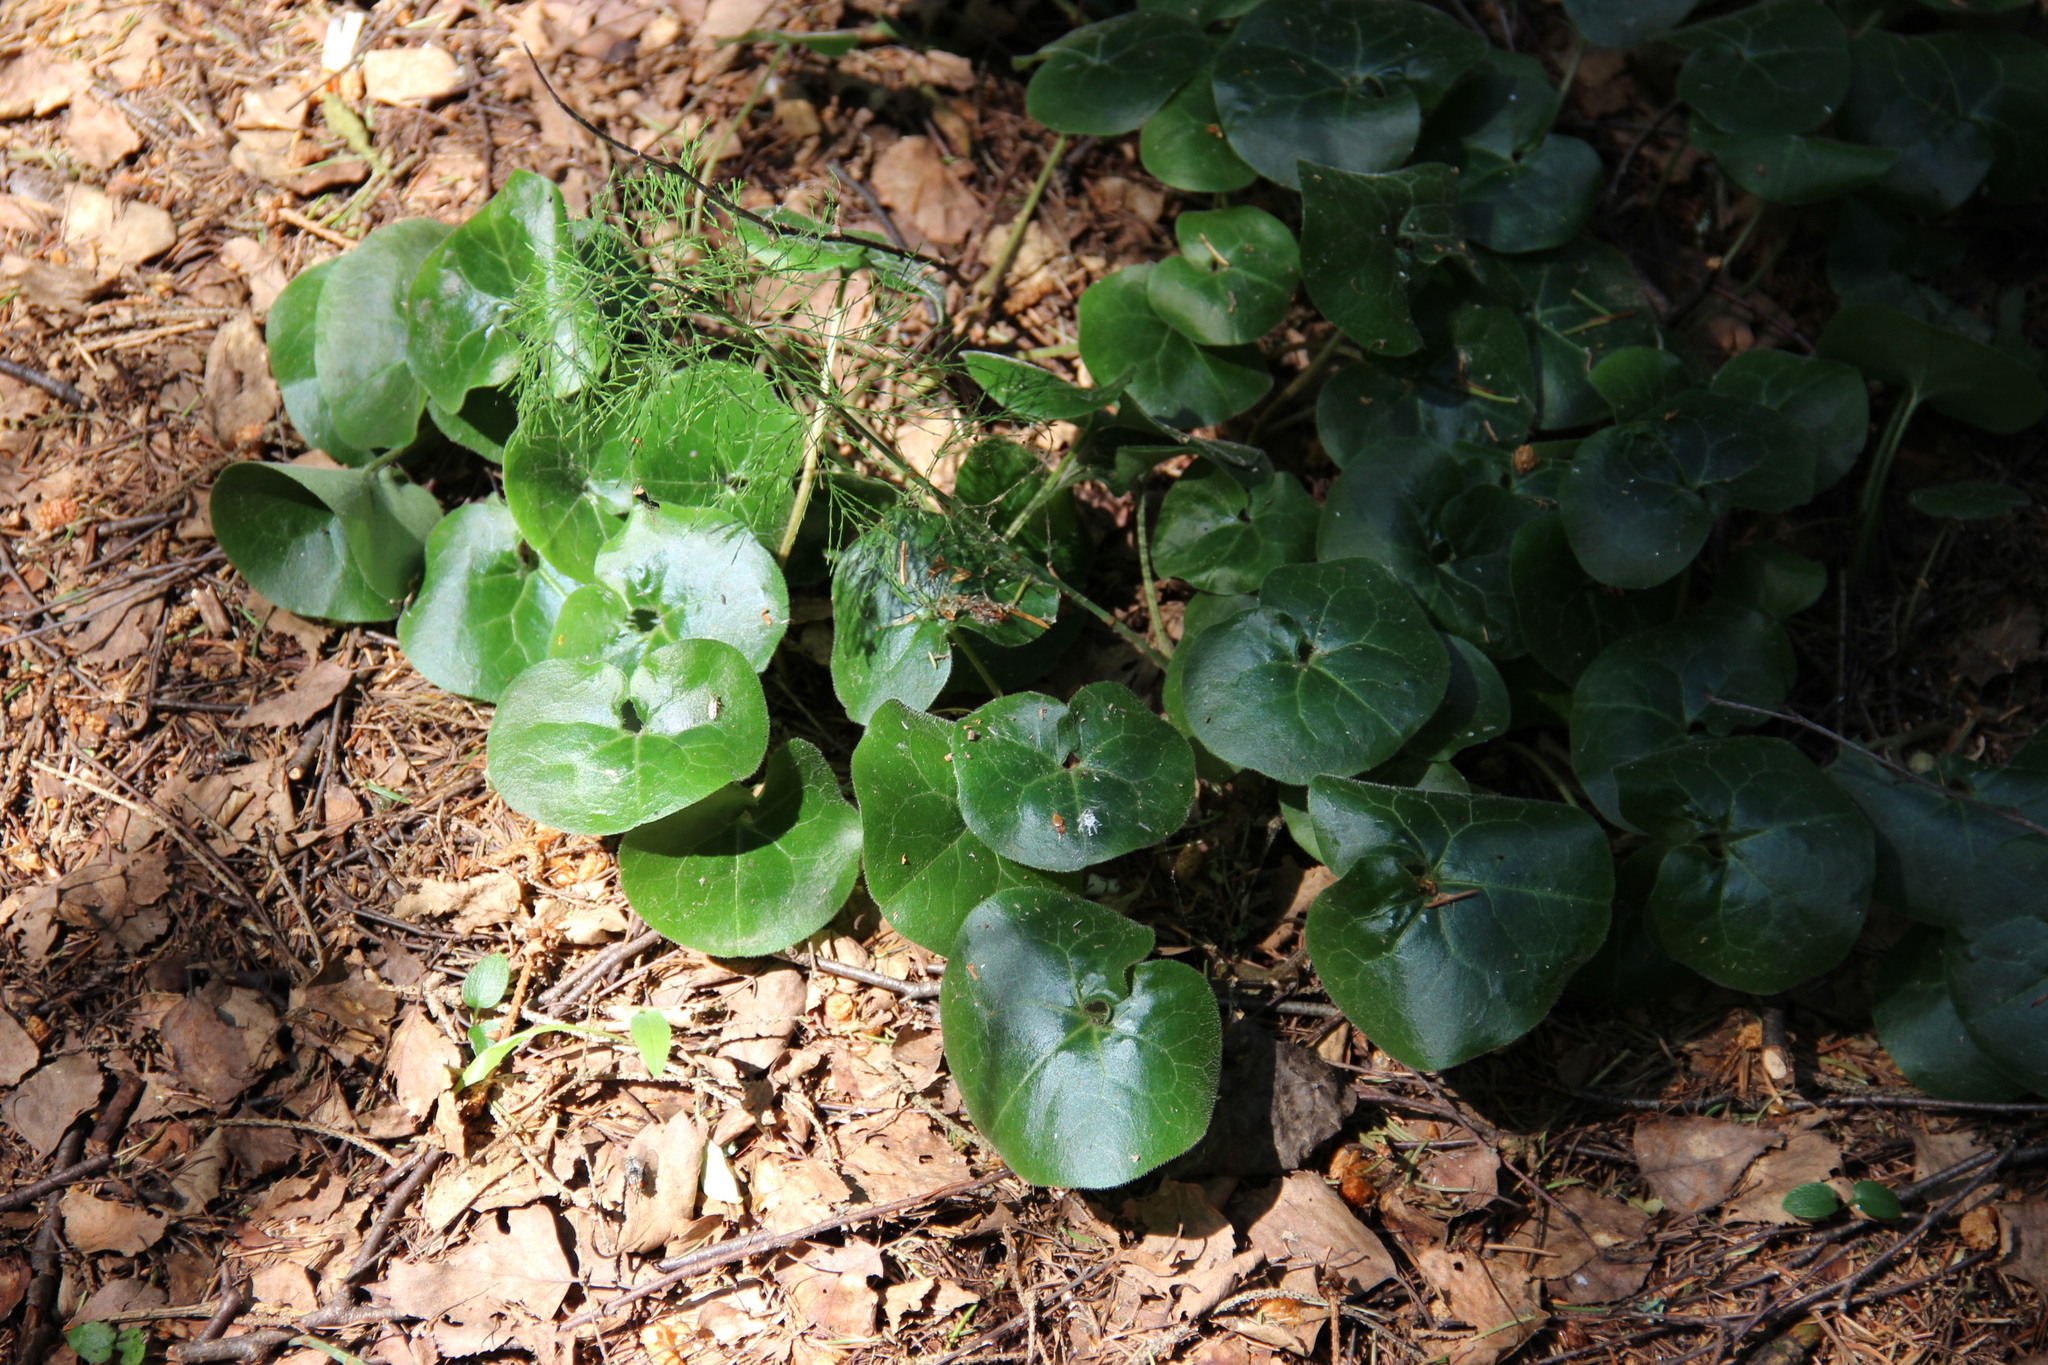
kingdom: Plantae
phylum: Tracheophyta
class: Magnoliopsida
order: Piperales
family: Aristolochiaceae
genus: Asarum
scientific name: Asarum europaeum
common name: Asarabacca
